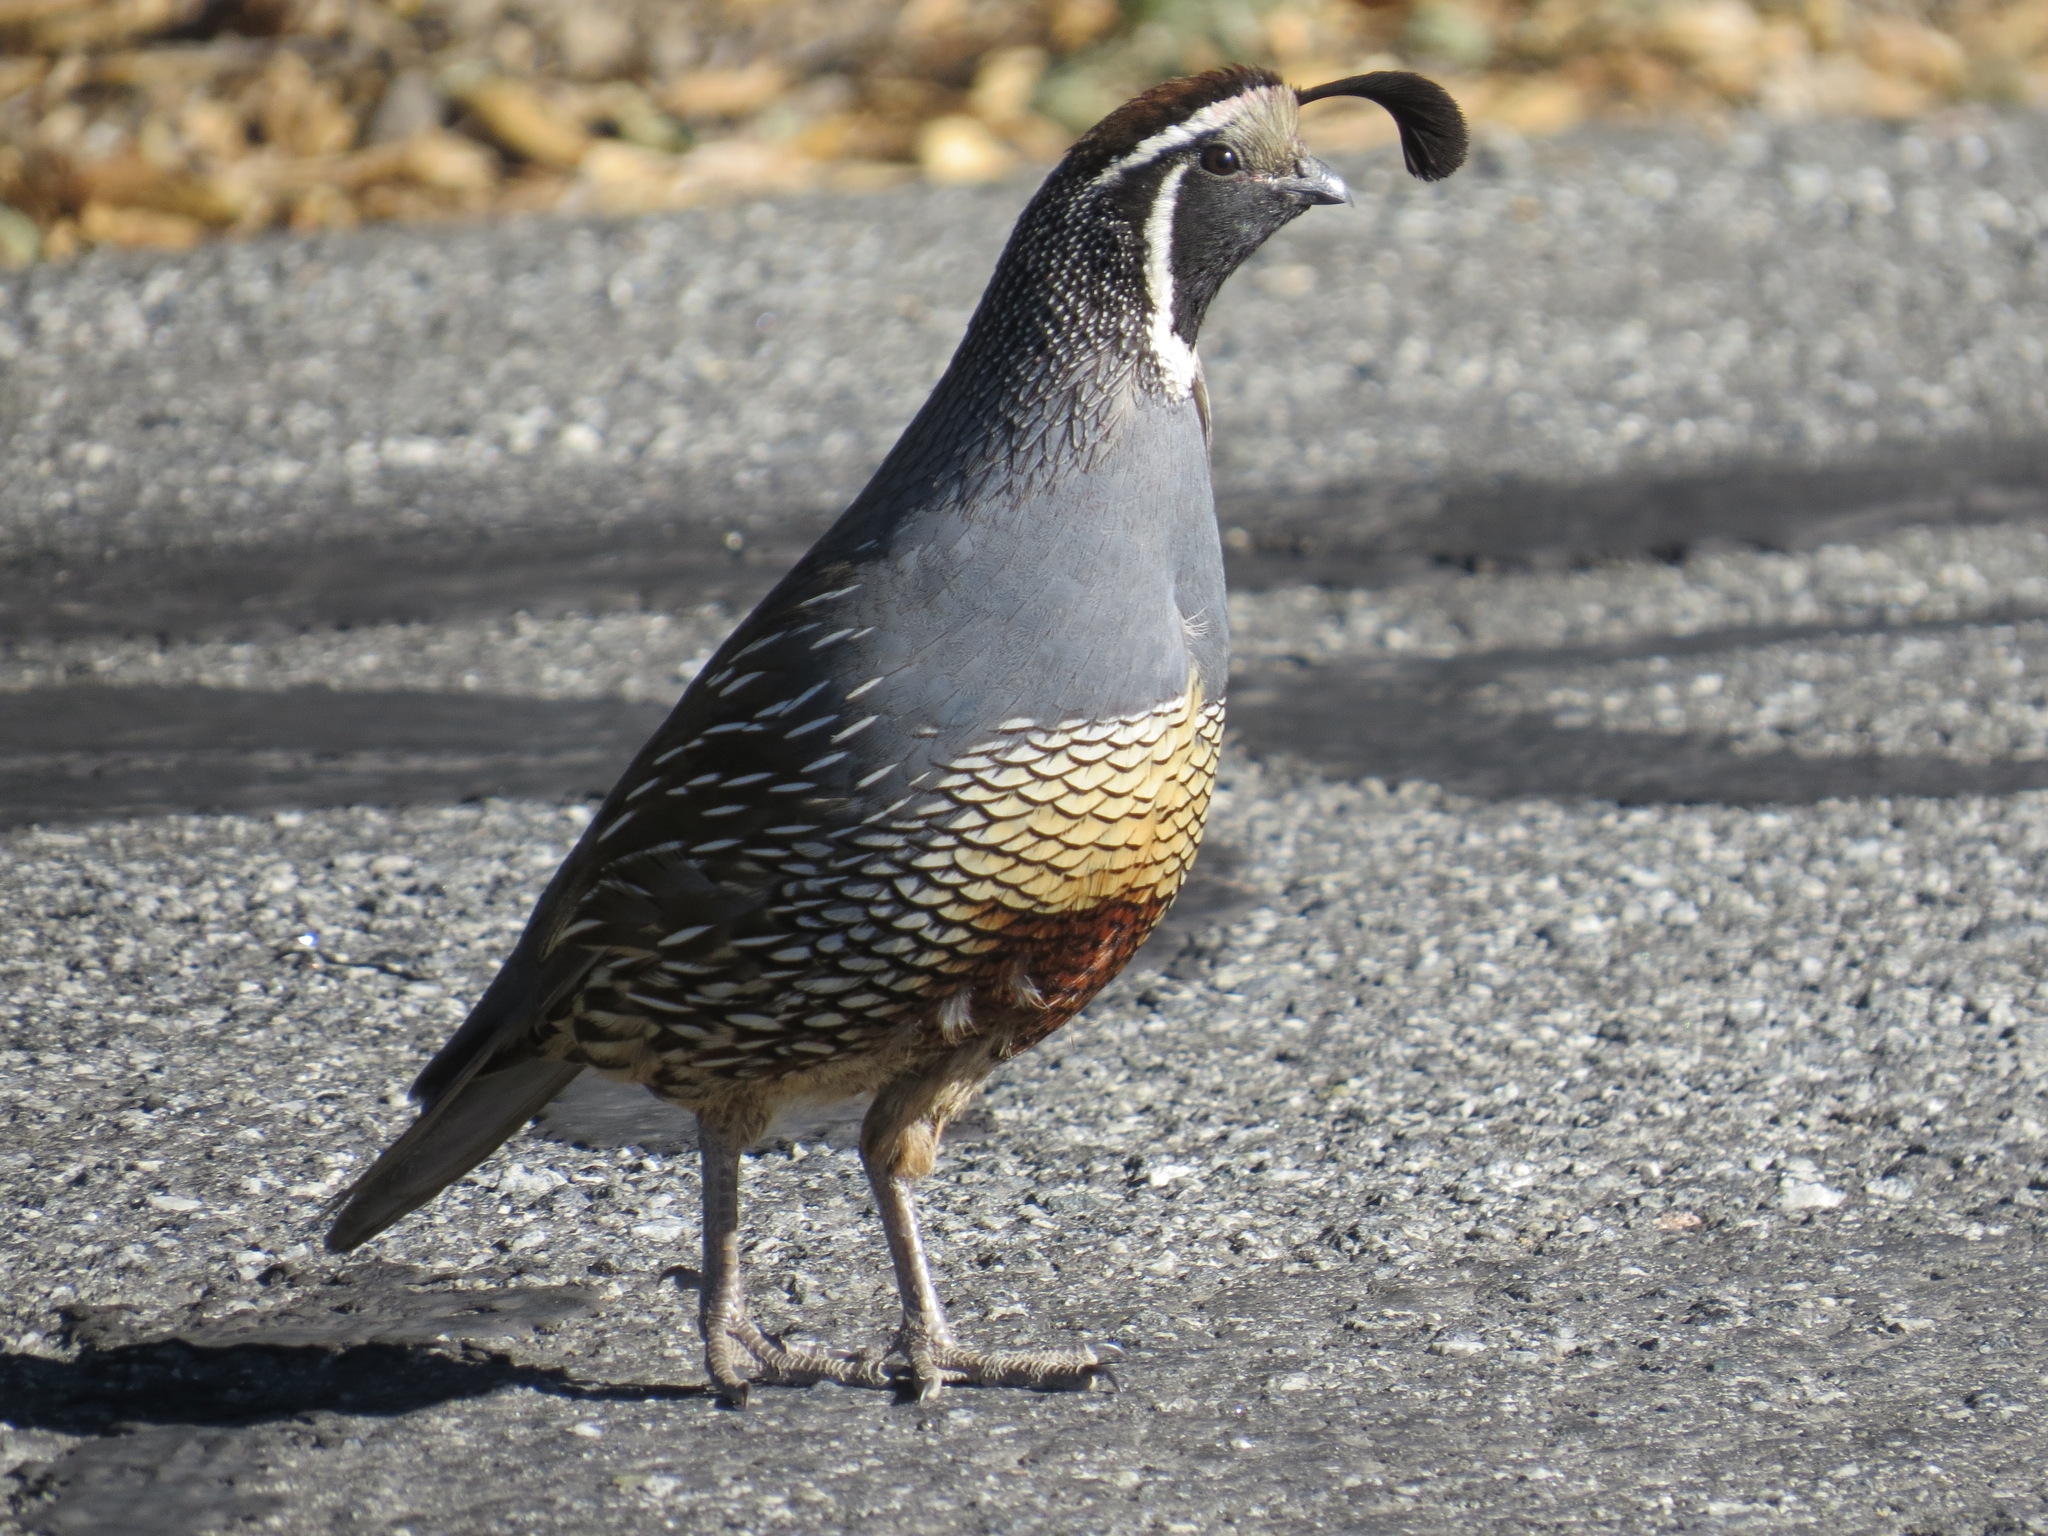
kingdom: Animalia
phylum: Chordata
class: Aves
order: Galliformes
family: Odontophoridae
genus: Callipepla
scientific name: Callipepla californica
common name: California quail
